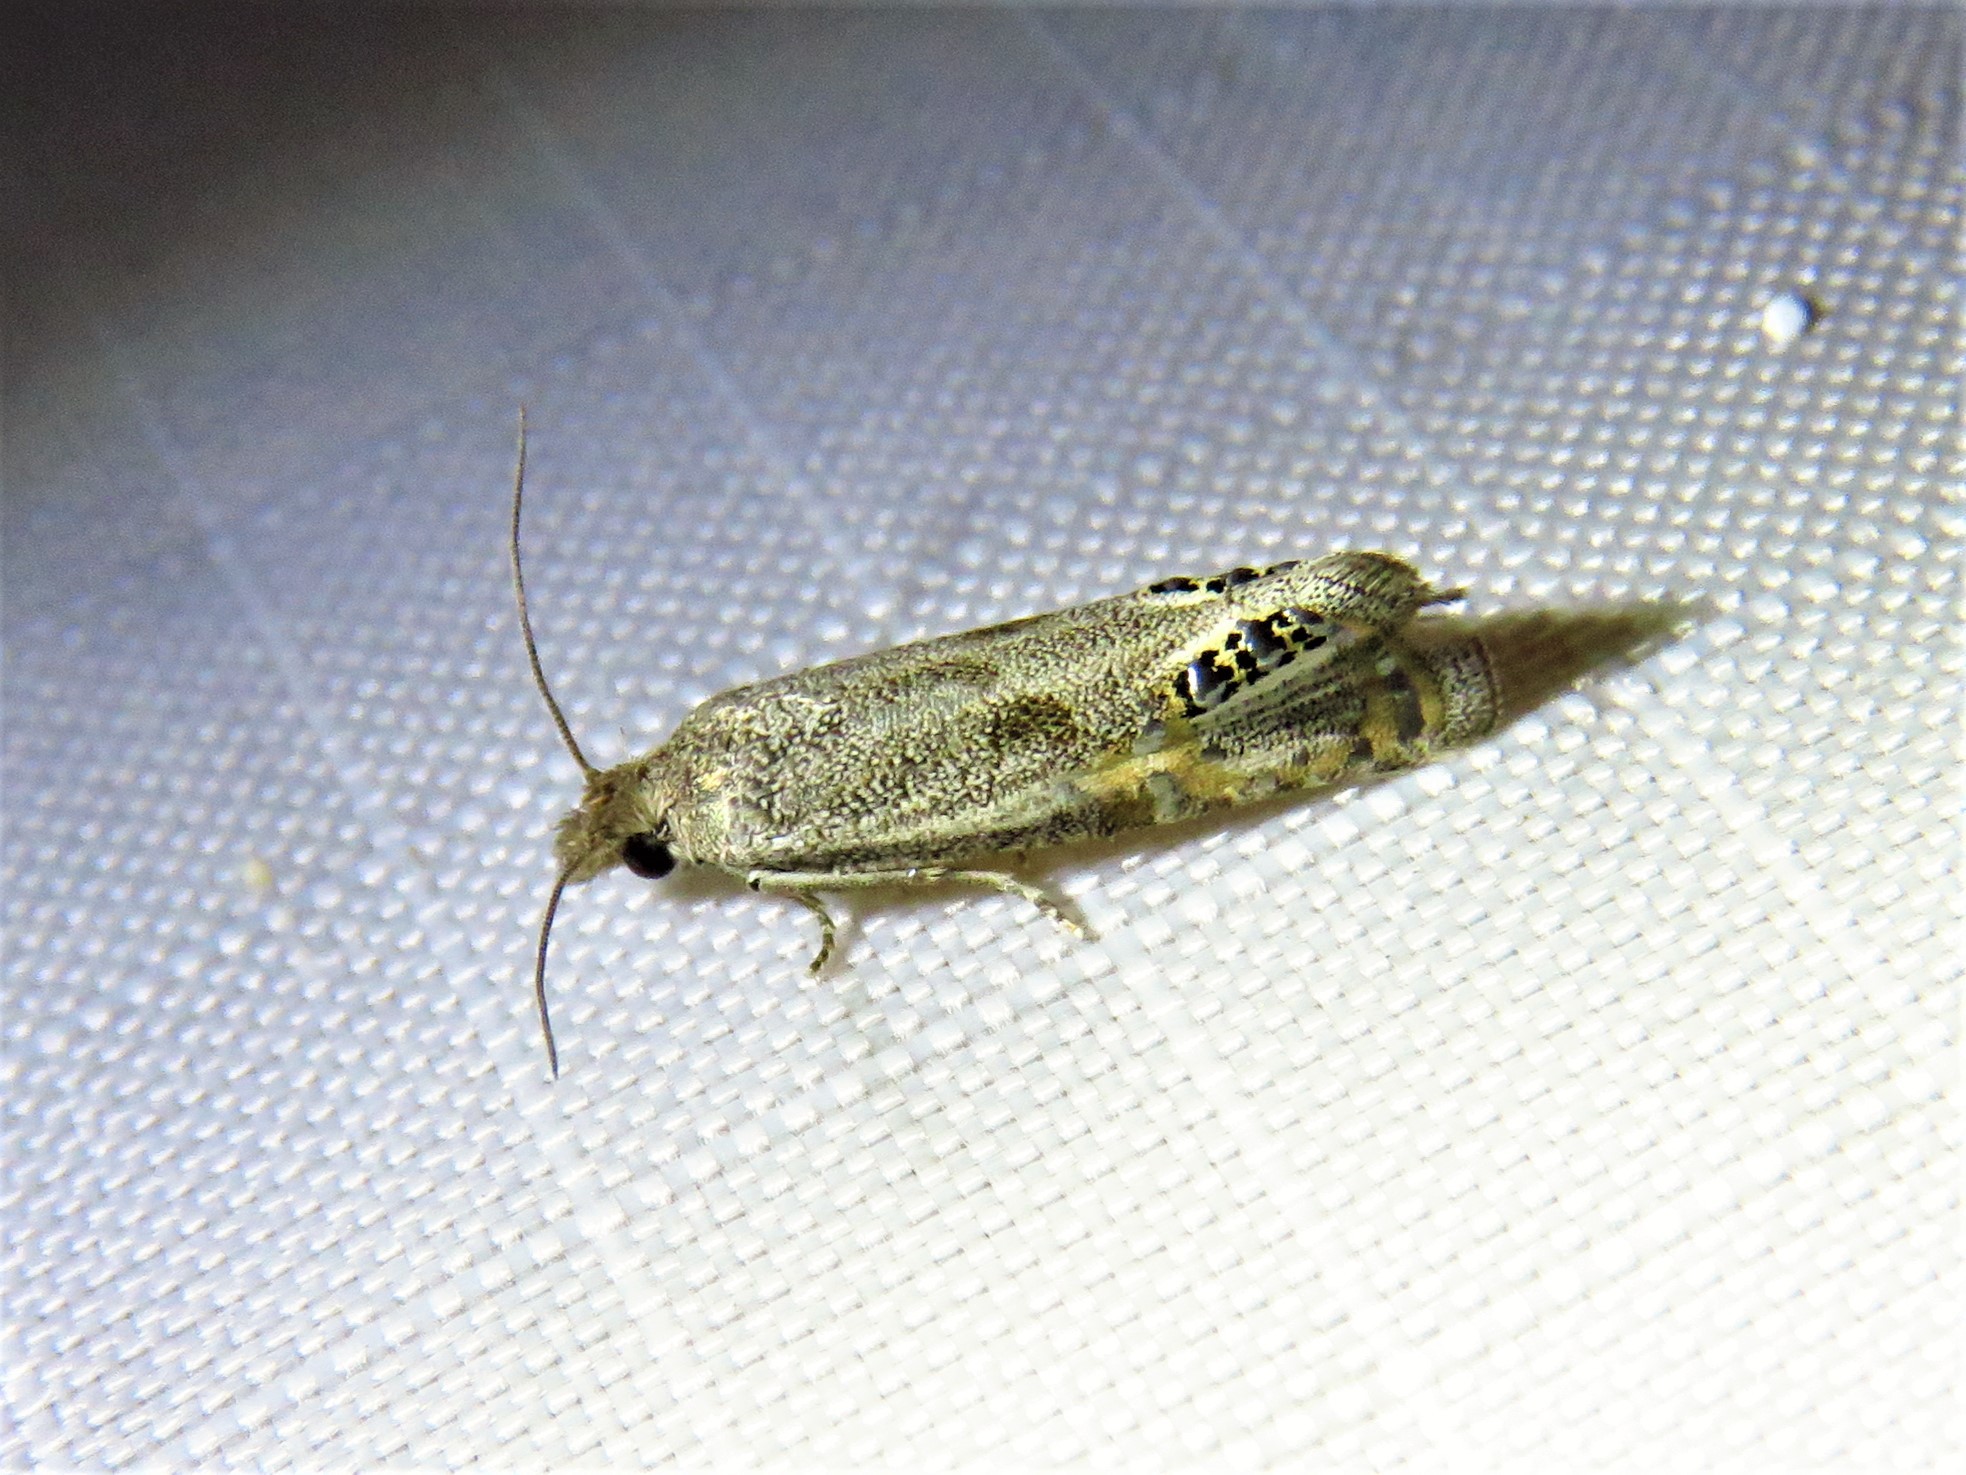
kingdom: Animalia
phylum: Arthropoda
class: Insecta
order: Lepidoptera
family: Tortricidae
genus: Pelochrista
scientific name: Pelochrista scintillana
